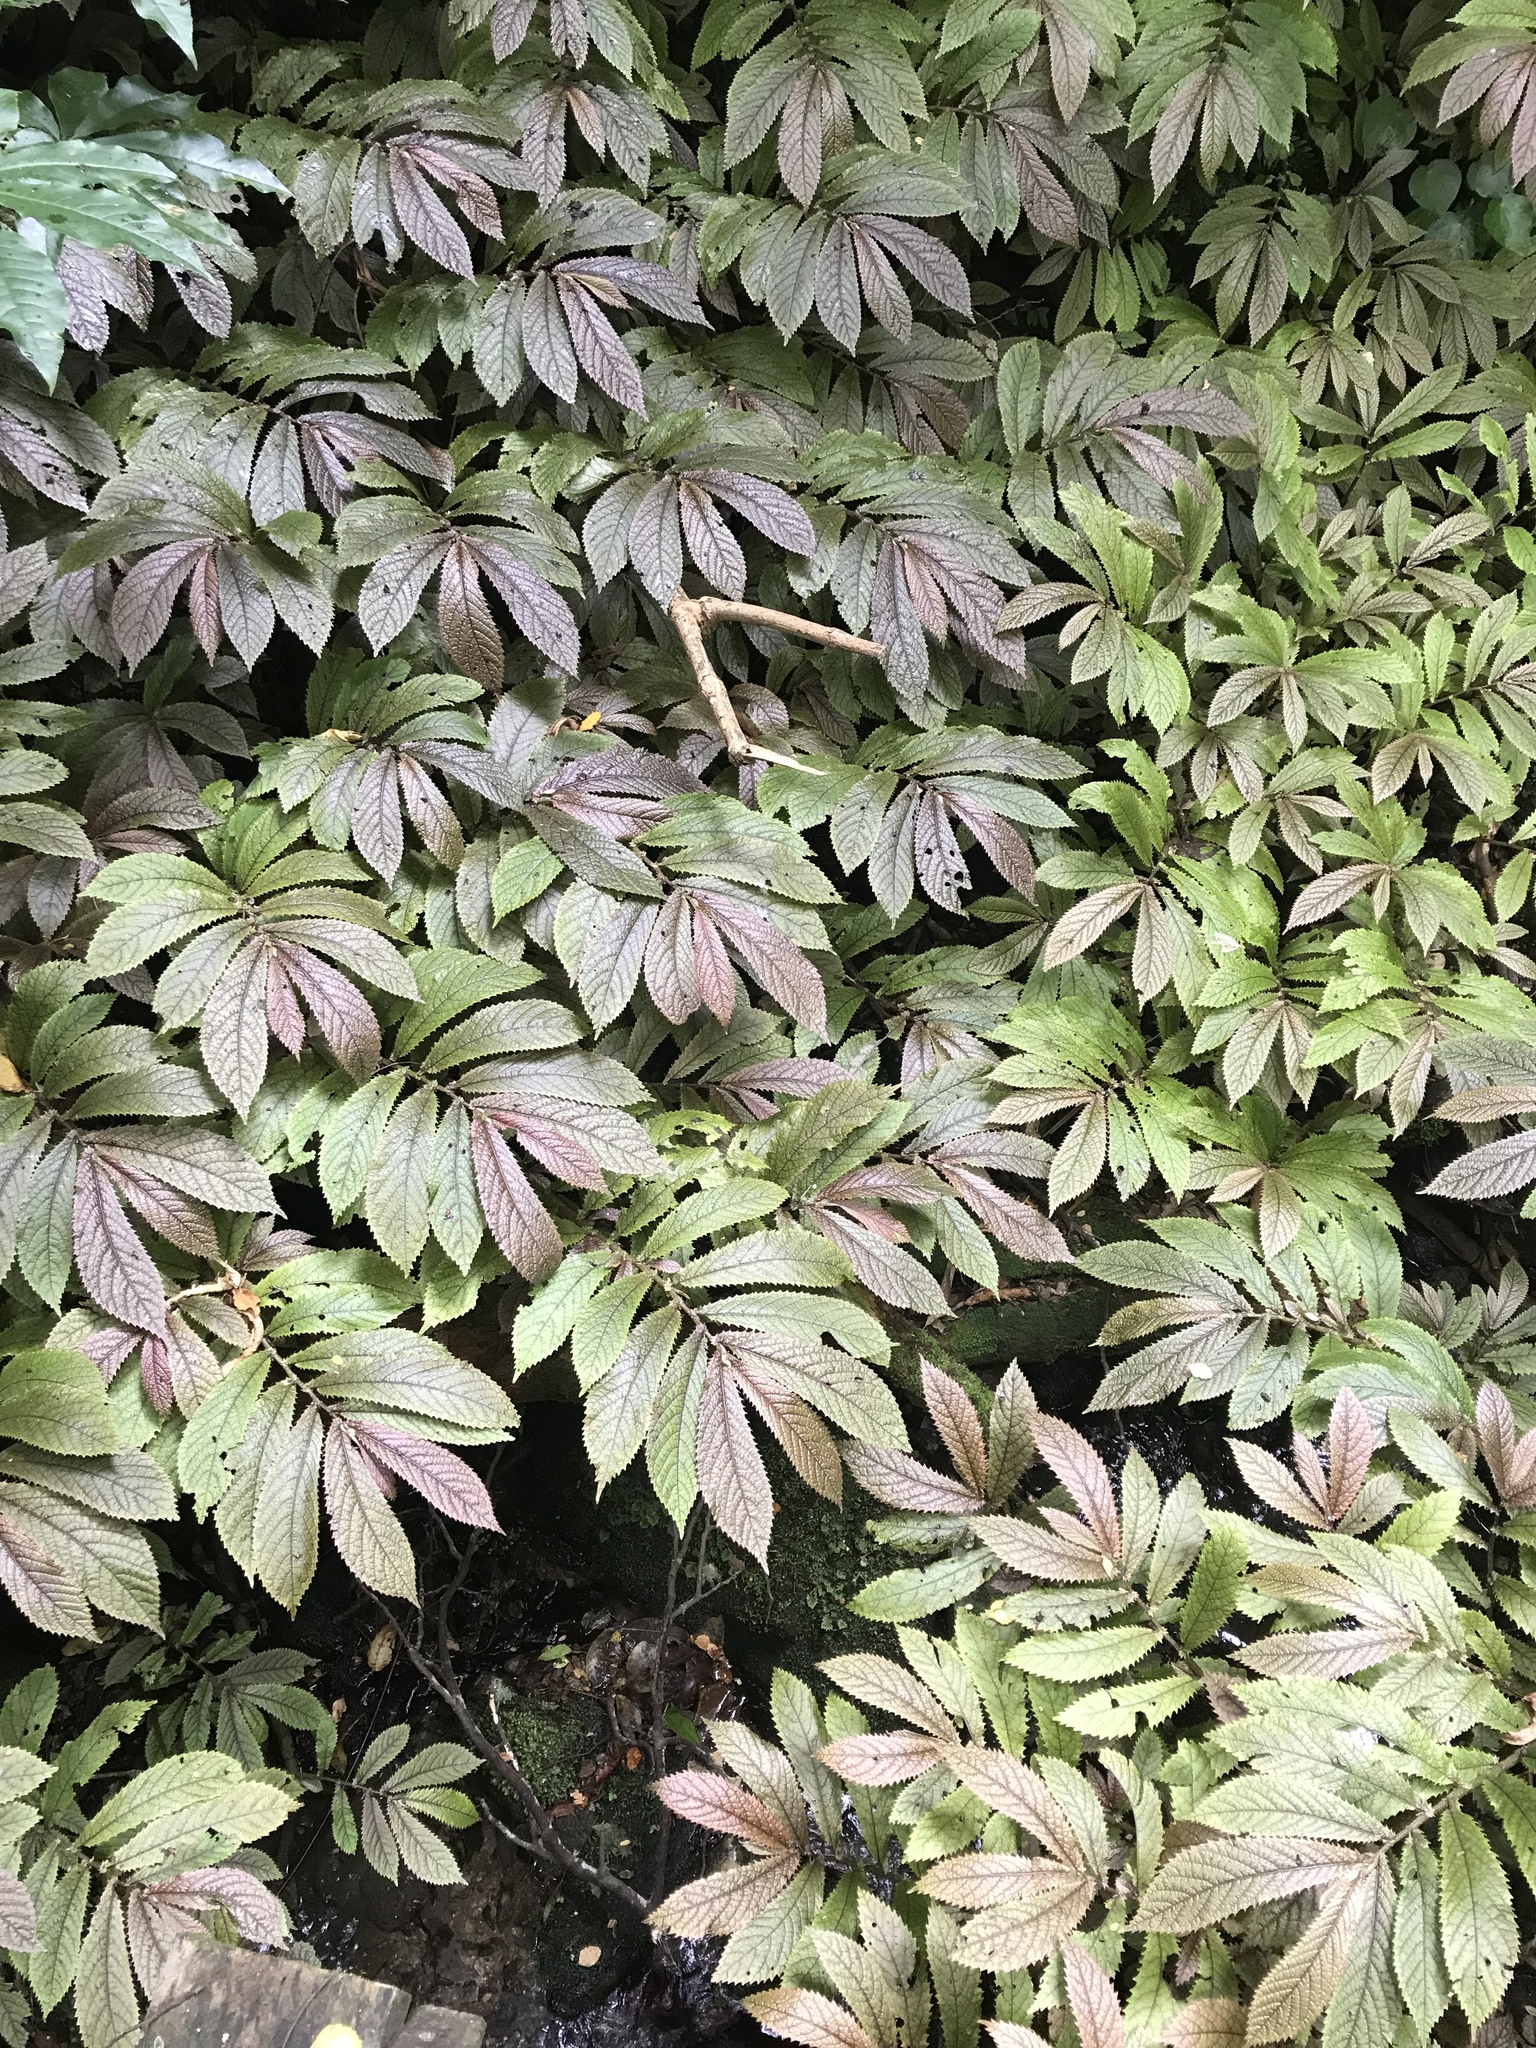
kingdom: Plantae
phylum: Tracheophyta
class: Magnoliopsida
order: Rosales
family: Urticaceae
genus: Elatostema
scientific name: Elatostema rugosum
